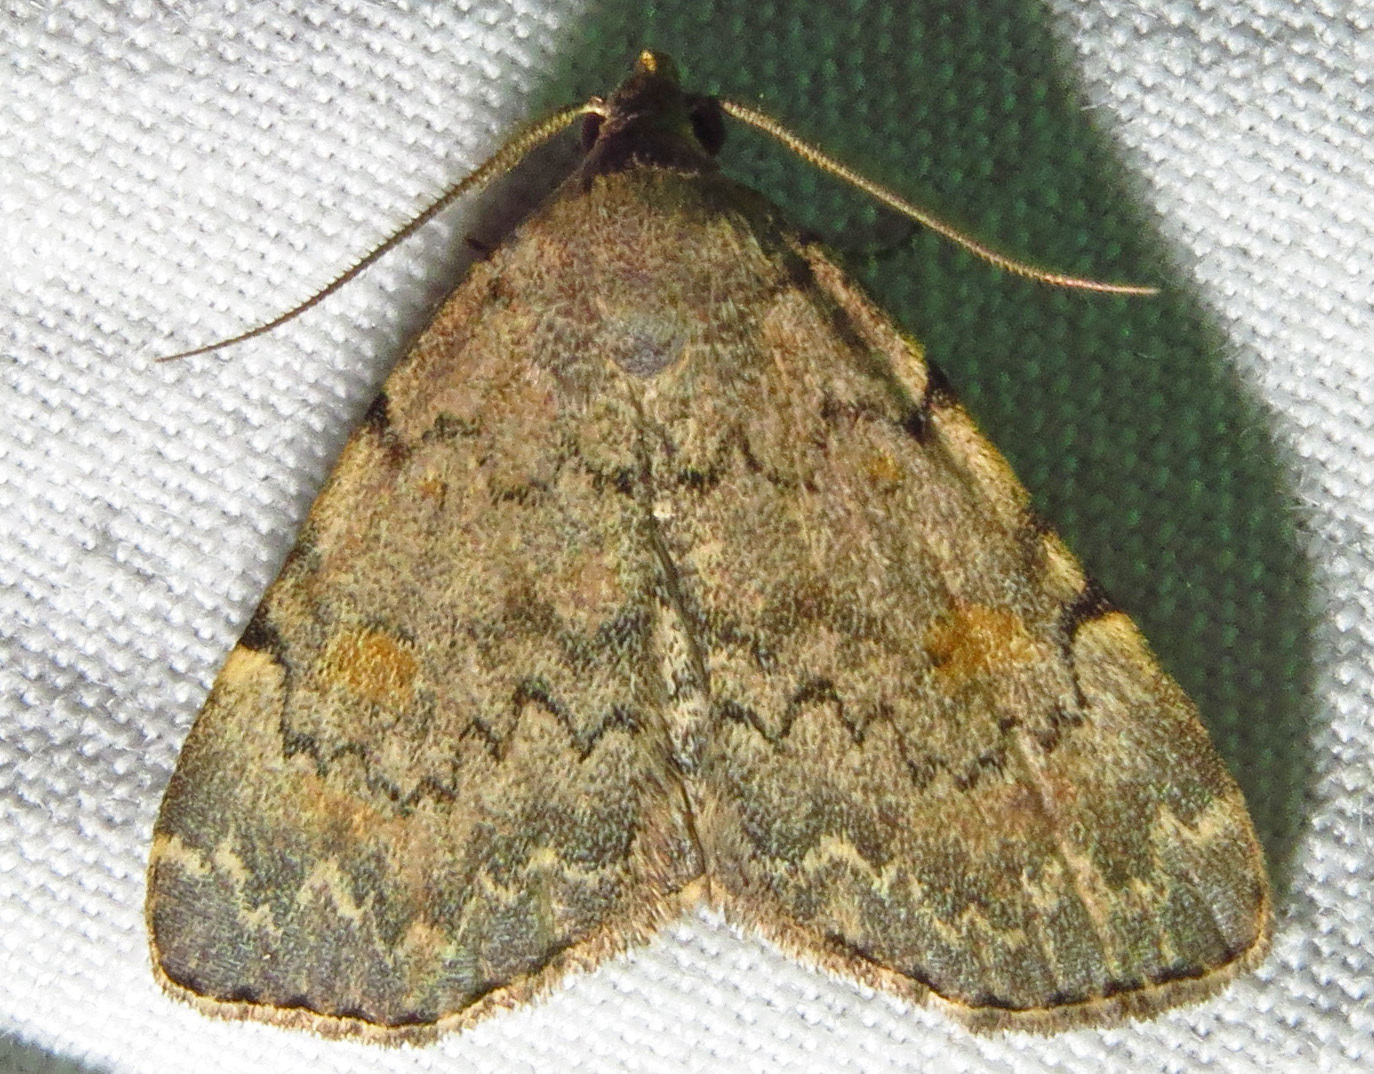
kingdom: Animalia
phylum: Arthropoda
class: Insecta
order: Lepidoptera
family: Erebidae
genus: Idia
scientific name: Idia aemula
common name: Common idia moth
